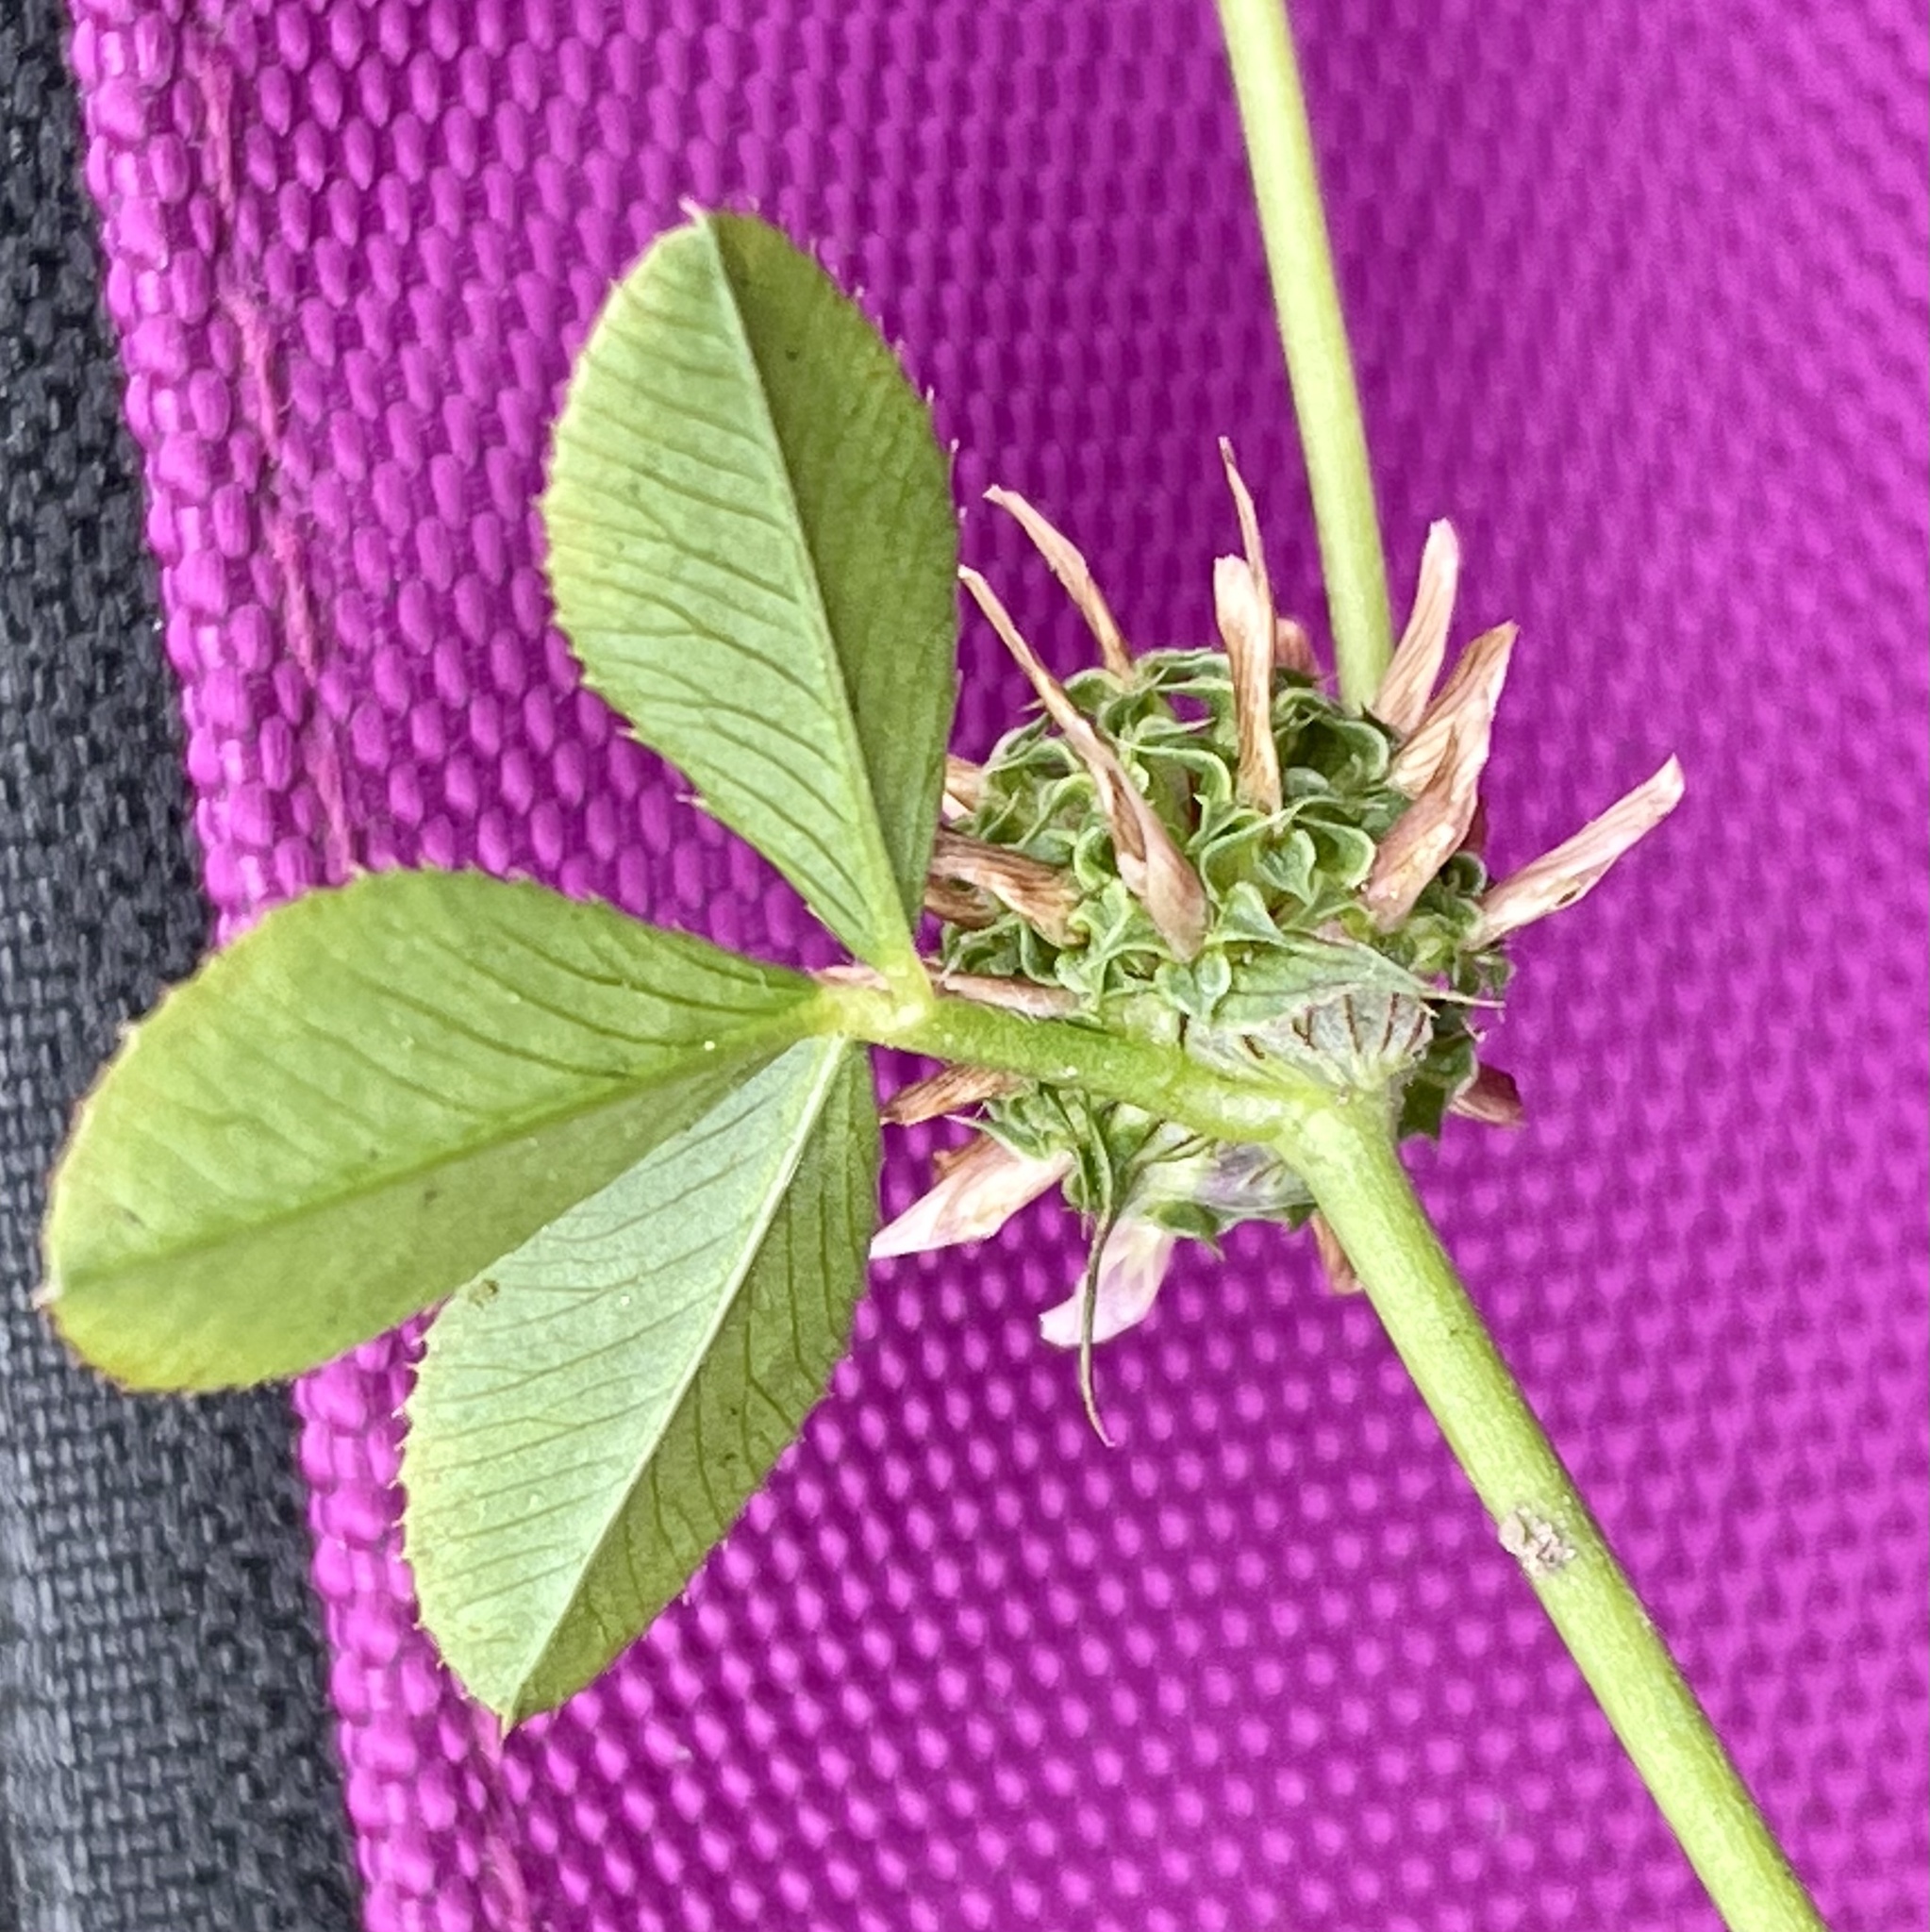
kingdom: Plantae
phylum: Tracheophyta
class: Magnoliopsida
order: Fabales
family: Fabaceae
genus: Trifolium
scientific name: Trifolium glomeratum
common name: Clustered clover
